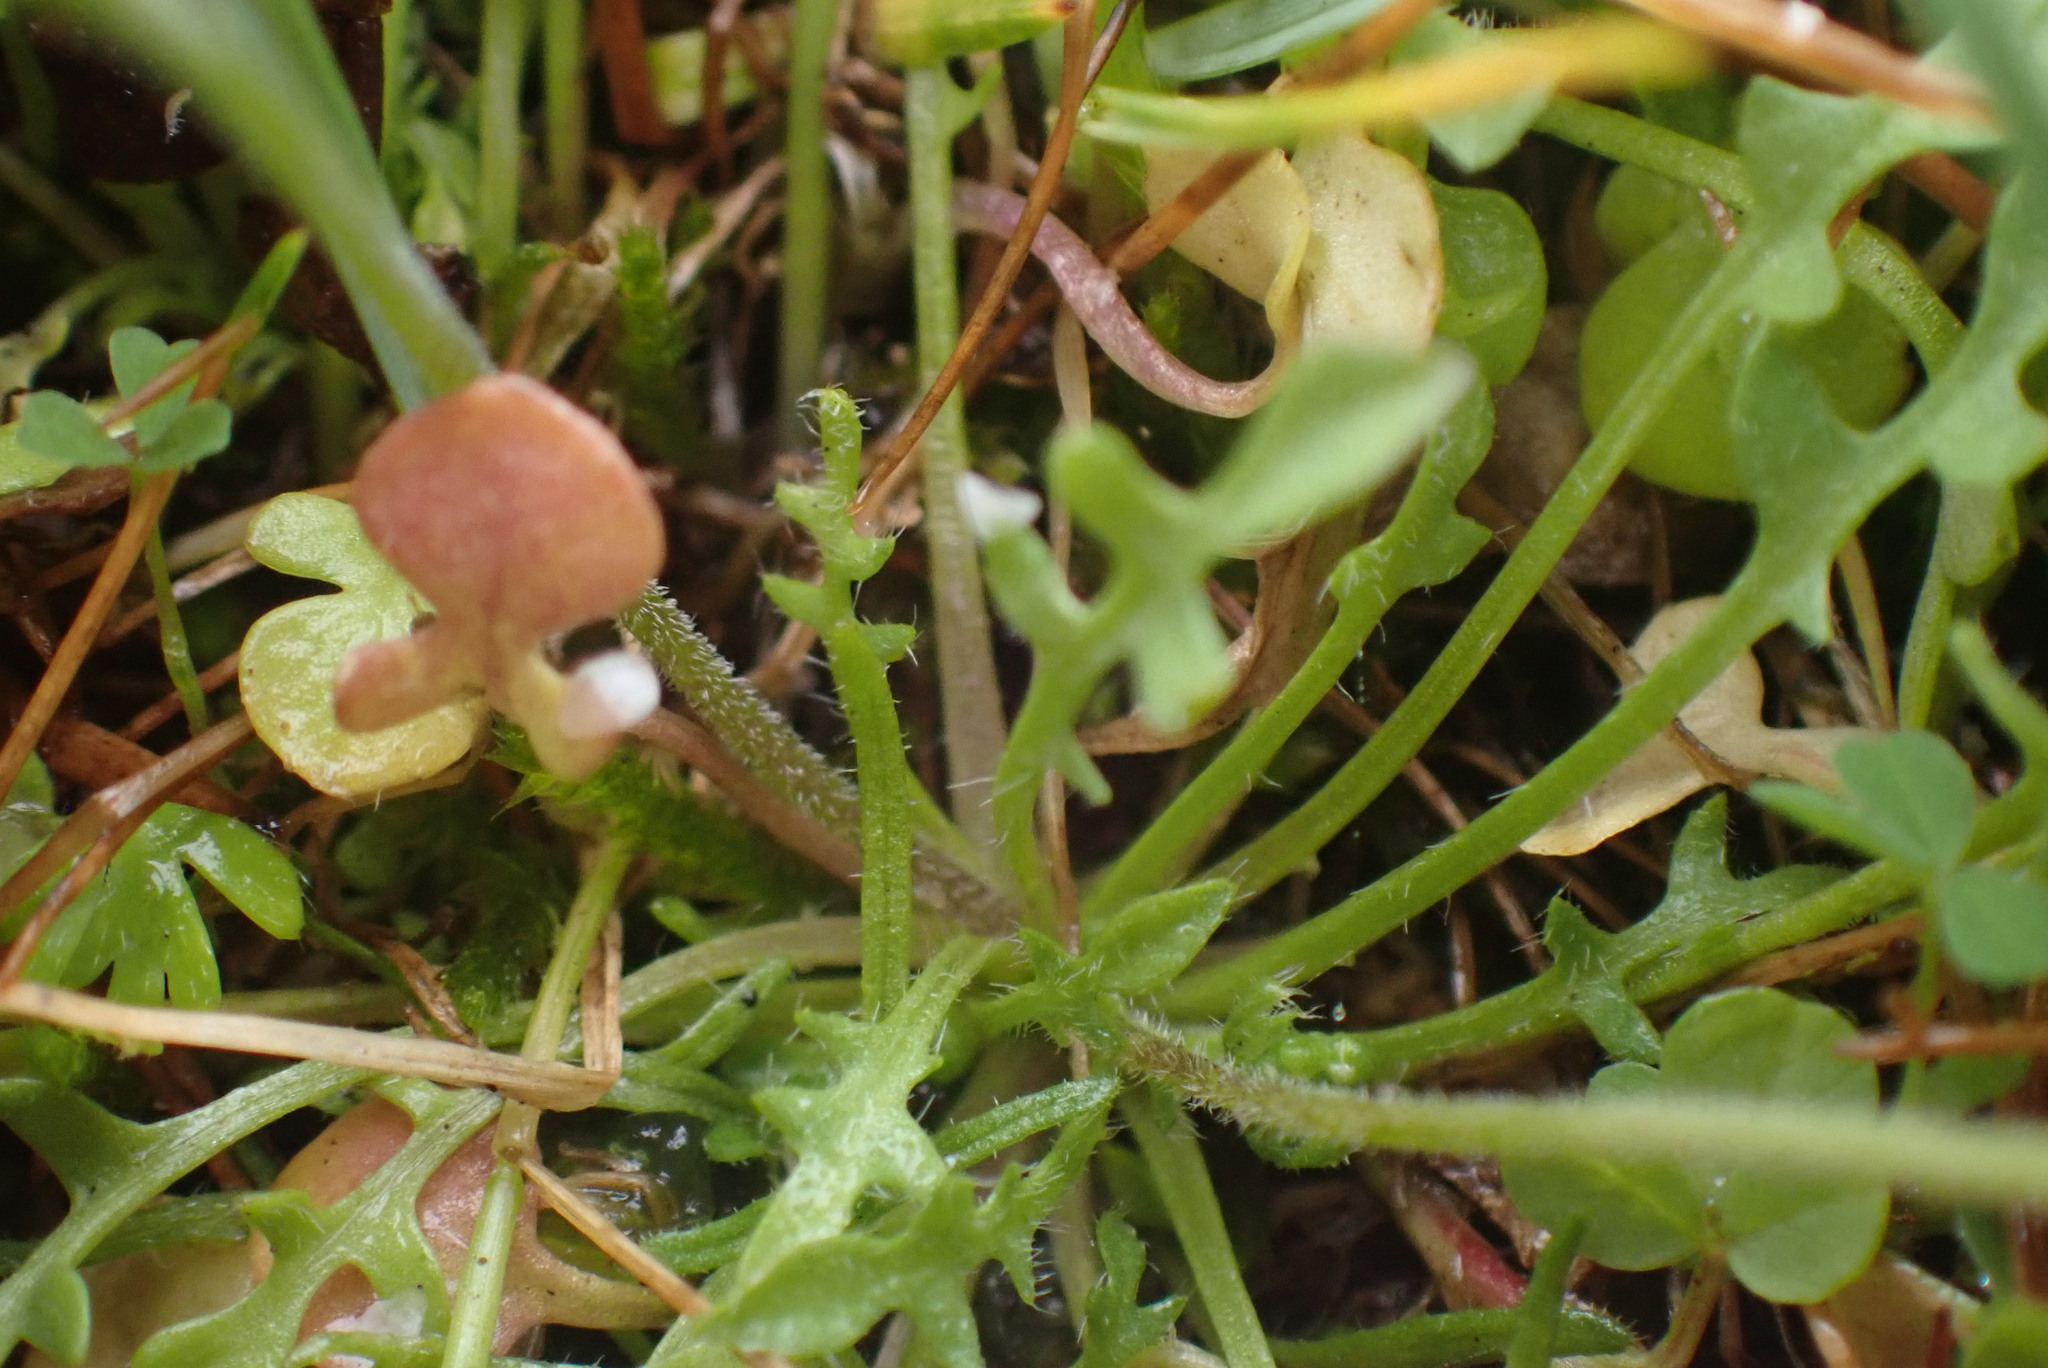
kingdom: Plantae
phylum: Tracheophyta
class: Magnoliopsida
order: Brassicales
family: Brassicaceae
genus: Teesdalia
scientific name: Teesdalia nudicaulis
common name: Shepherd's cress
